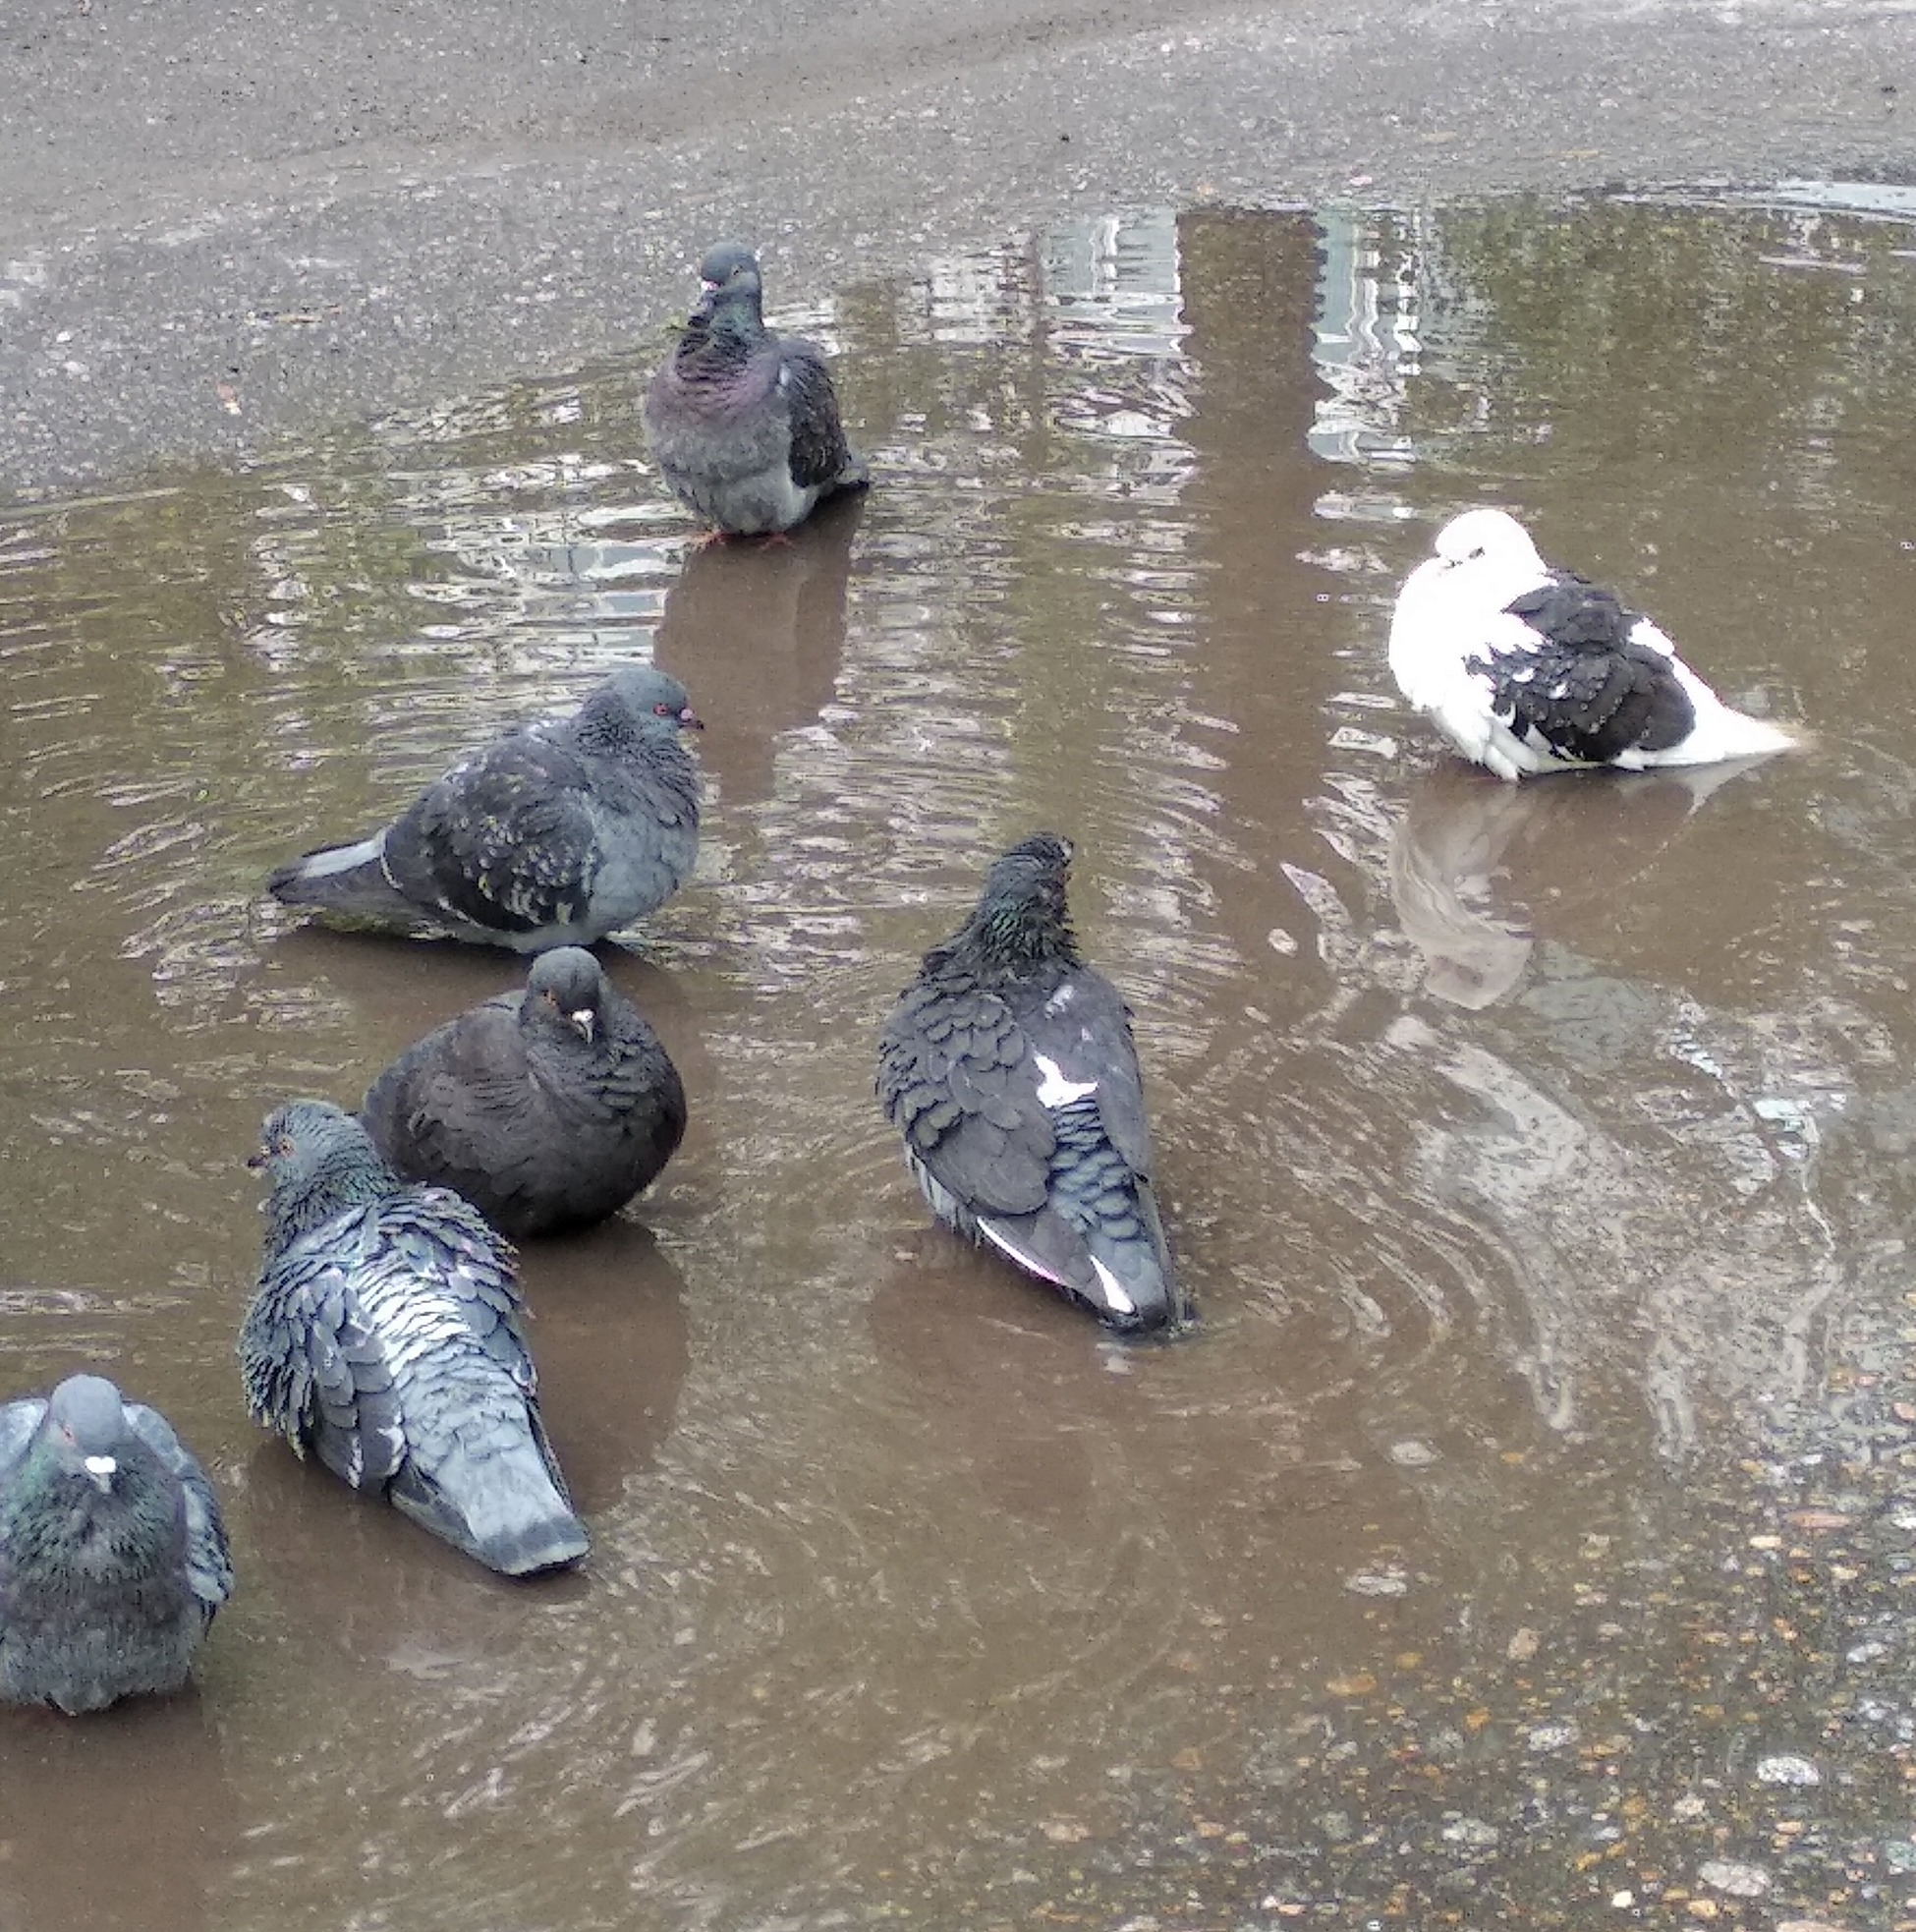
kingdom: Animalia
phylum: Chordata
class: Aves
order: Columbiformes
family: Columbidae
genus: Columba
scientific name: Columba livia
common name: Rock pigeon
